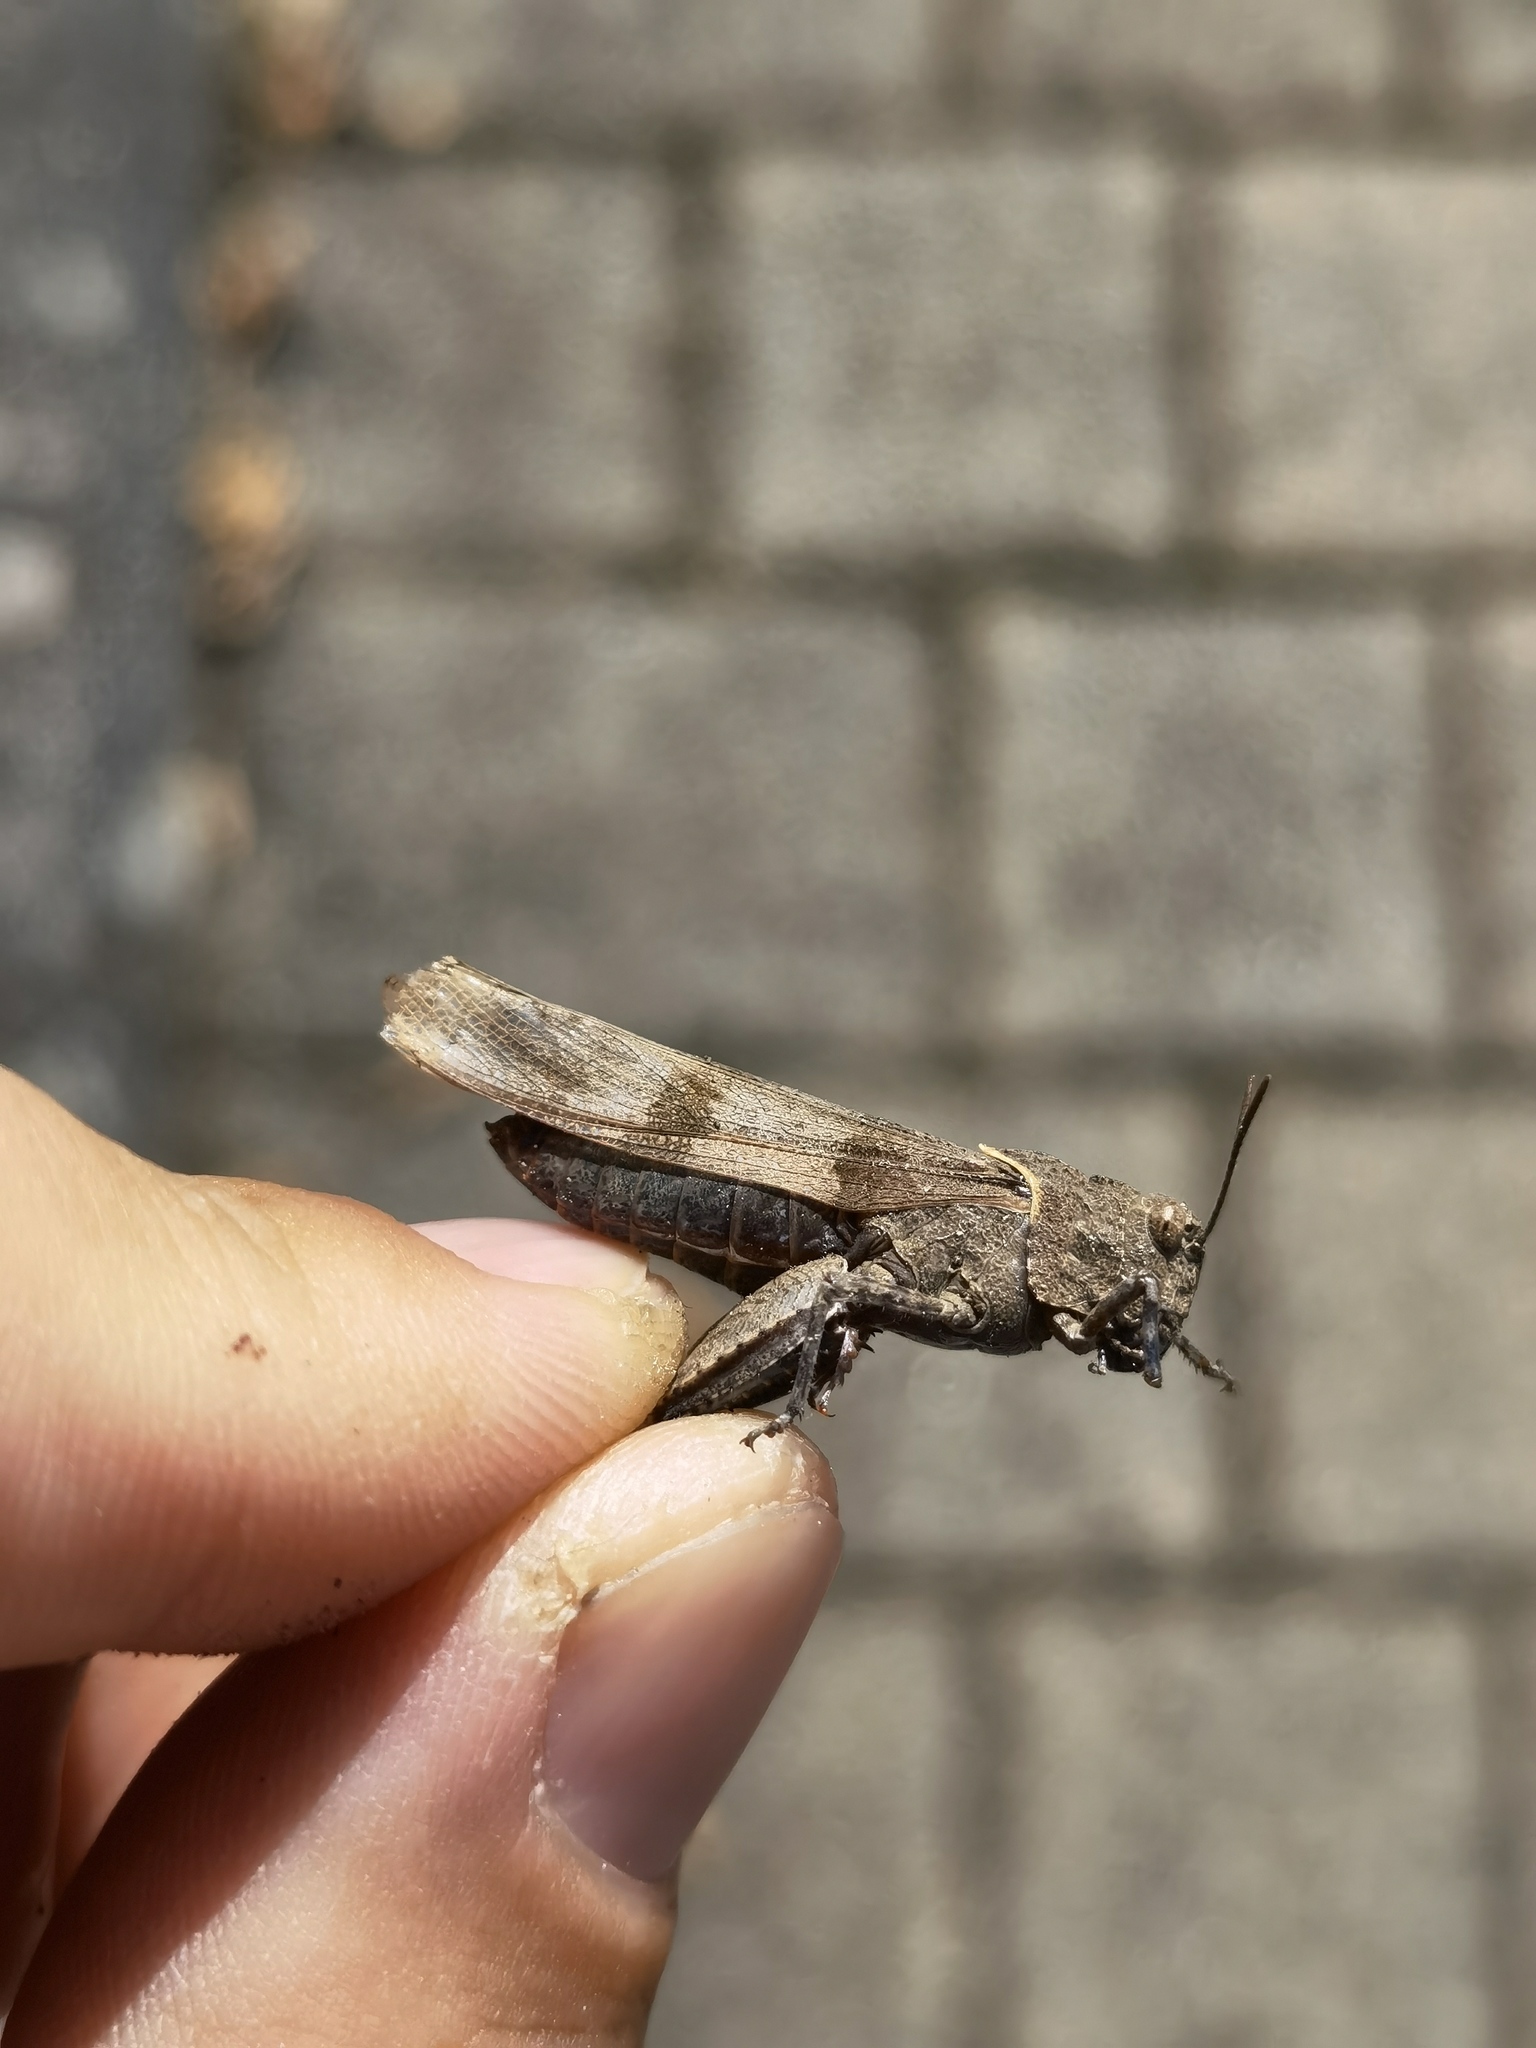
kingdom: Animalia
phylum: Arthropoda
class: Insecta
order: Orthoptera
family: Acrididae
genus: Oedipoda
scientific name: Oedipoda caerulescens
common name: Blue-winged grasshopper
